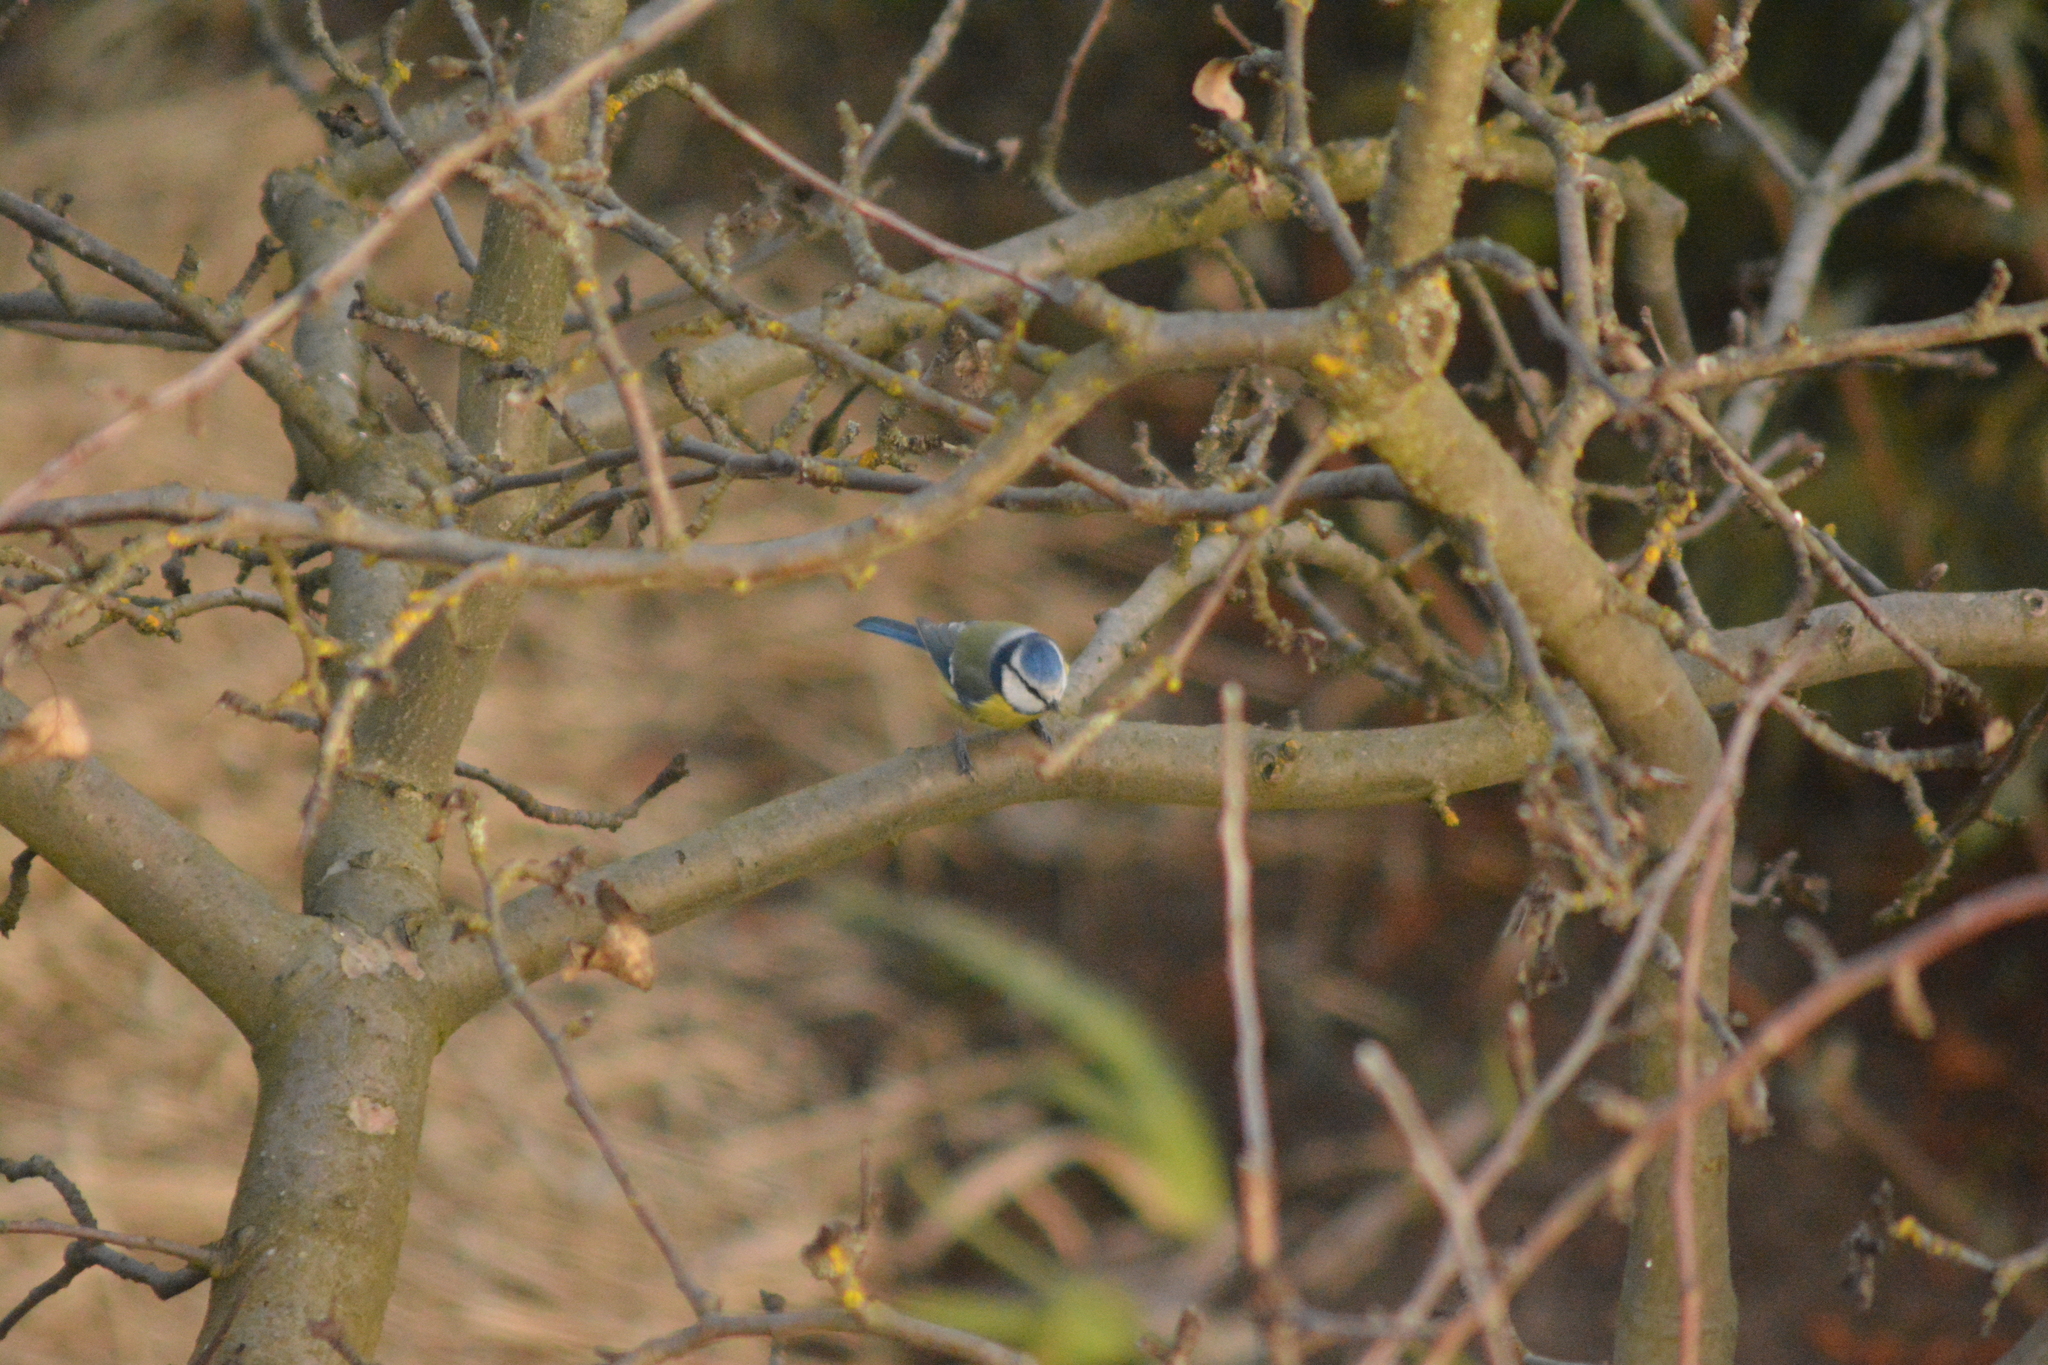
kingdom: Animalia
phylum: Chordata
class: Aves
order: Passeriformes
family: Paridae
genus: Cyanistes
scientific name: Cyanistes caeruleus
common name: Eurasian blue tit
